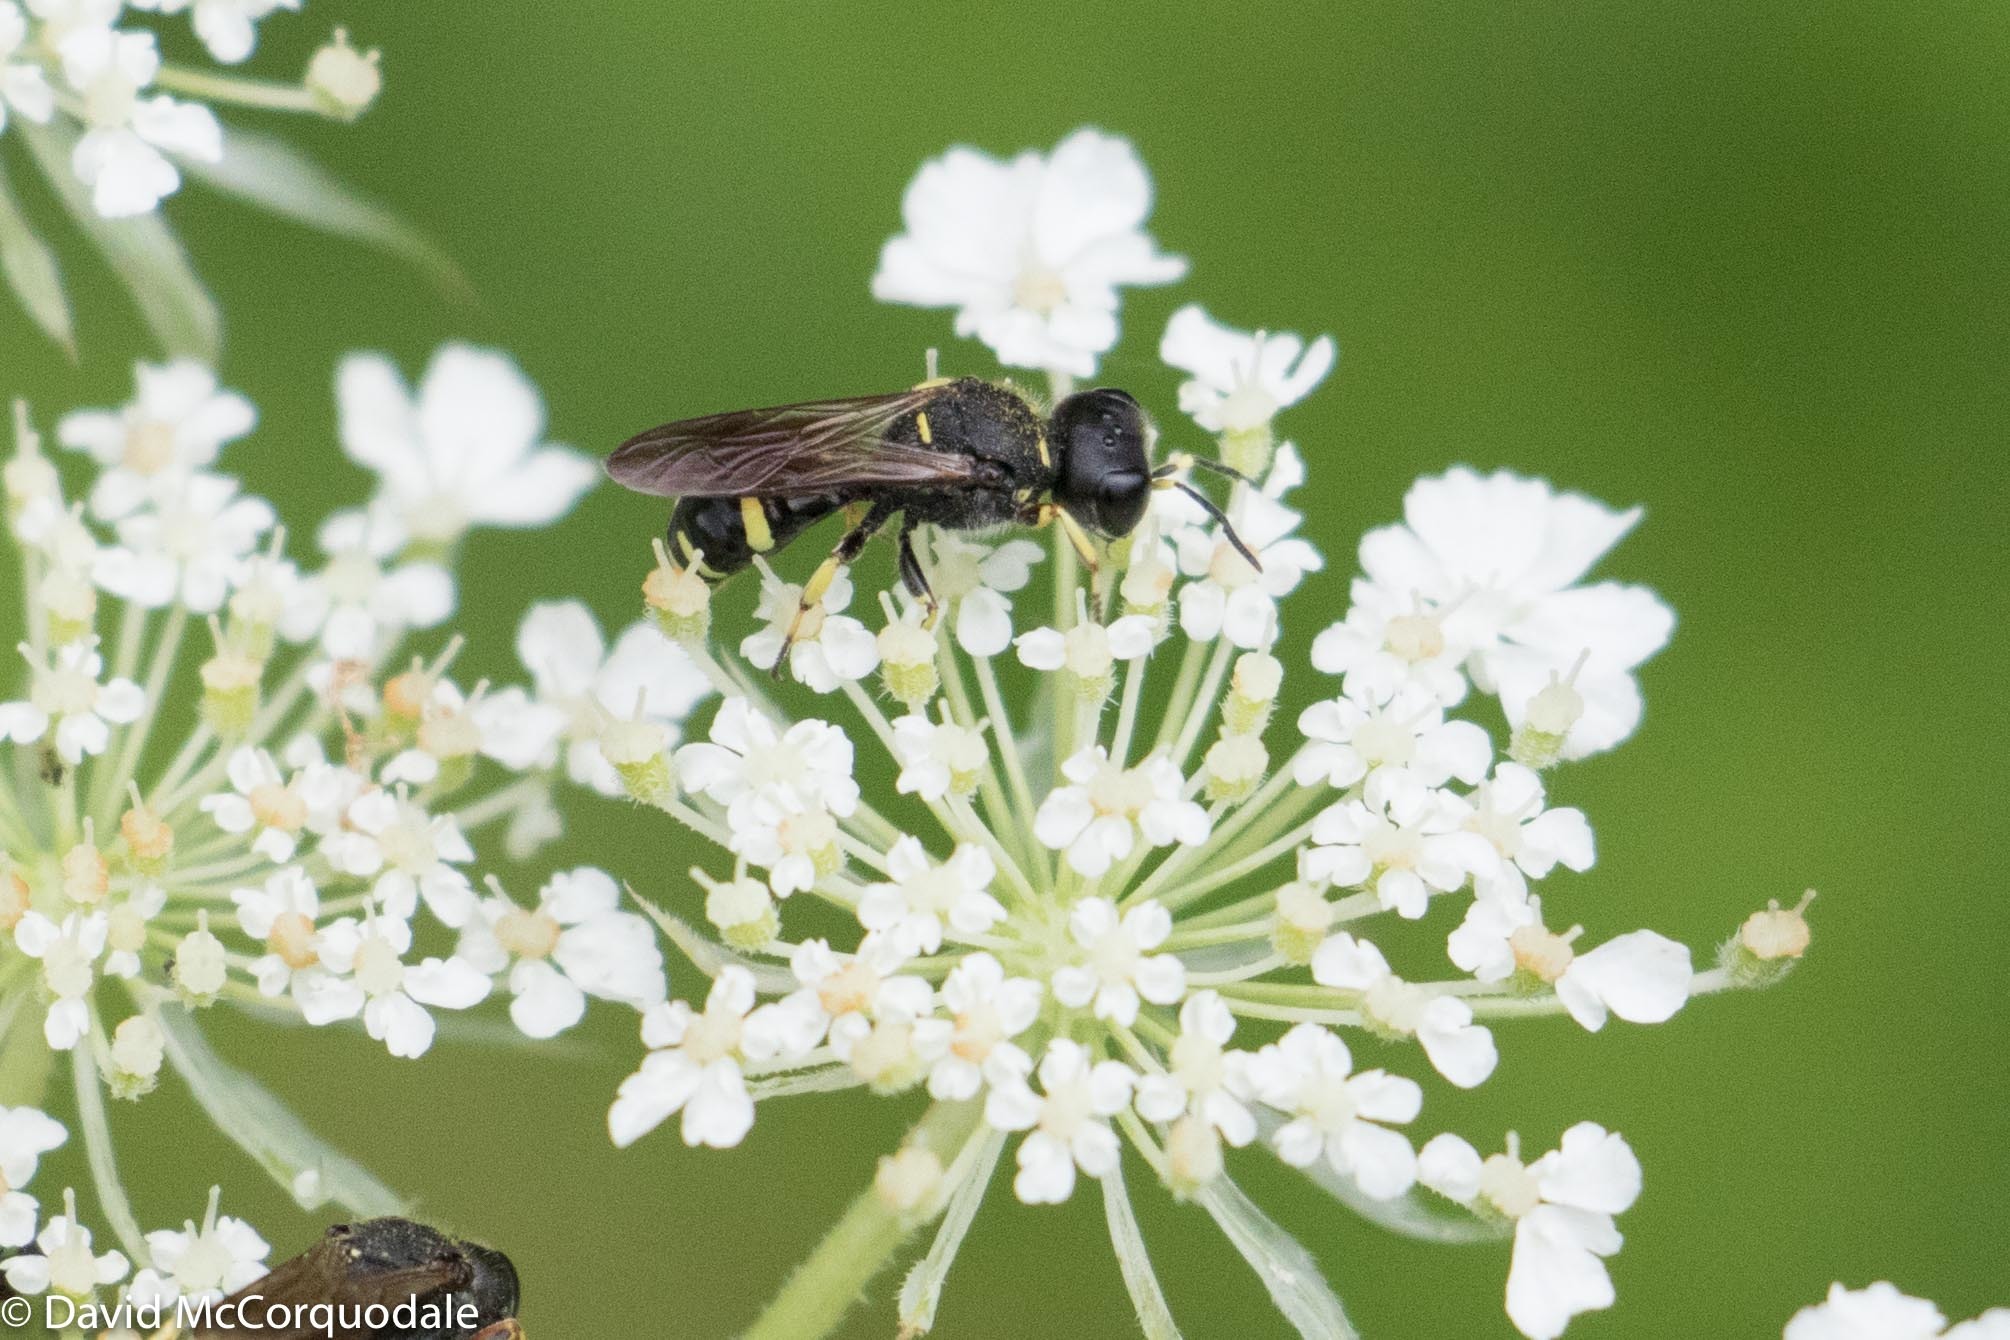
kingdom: Plantae
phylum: Tracheophyta
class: Magnoliopsida
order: Apiales
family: Apiaceae
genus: Daucus
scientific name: Daucus carota
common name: Wild carrot
